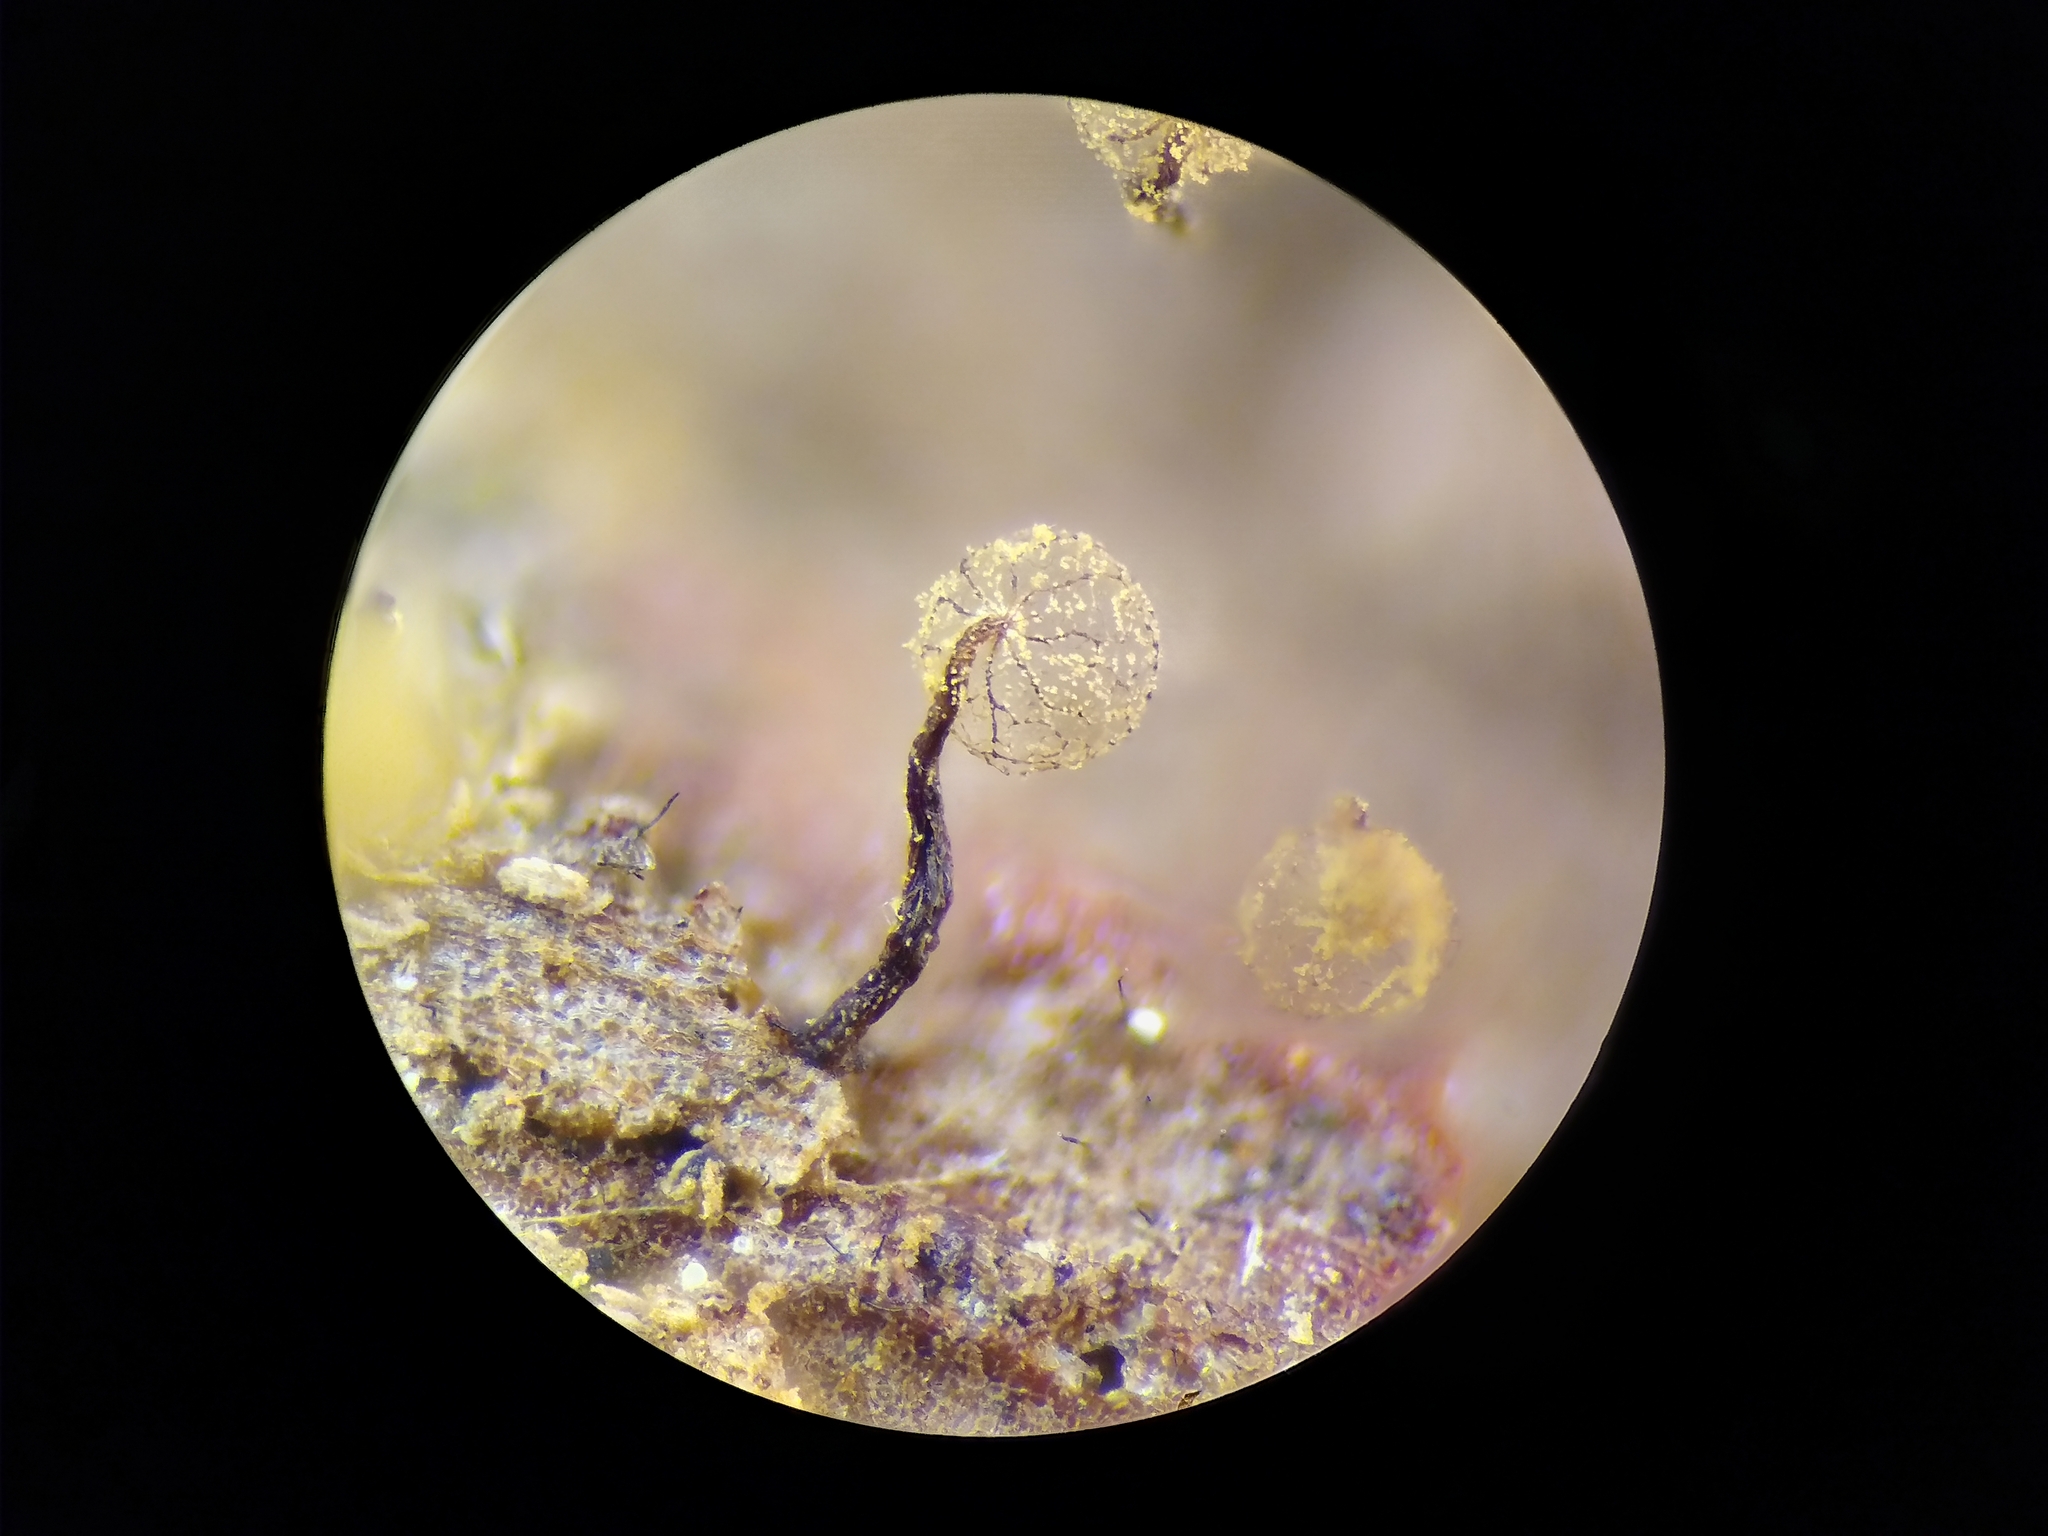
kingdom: Protozoa
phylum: Mycetozoa
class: Myxomycetes
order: Cribrariales
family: Cribrariaceae
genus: Cribraria
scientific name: Cribraria splendens
